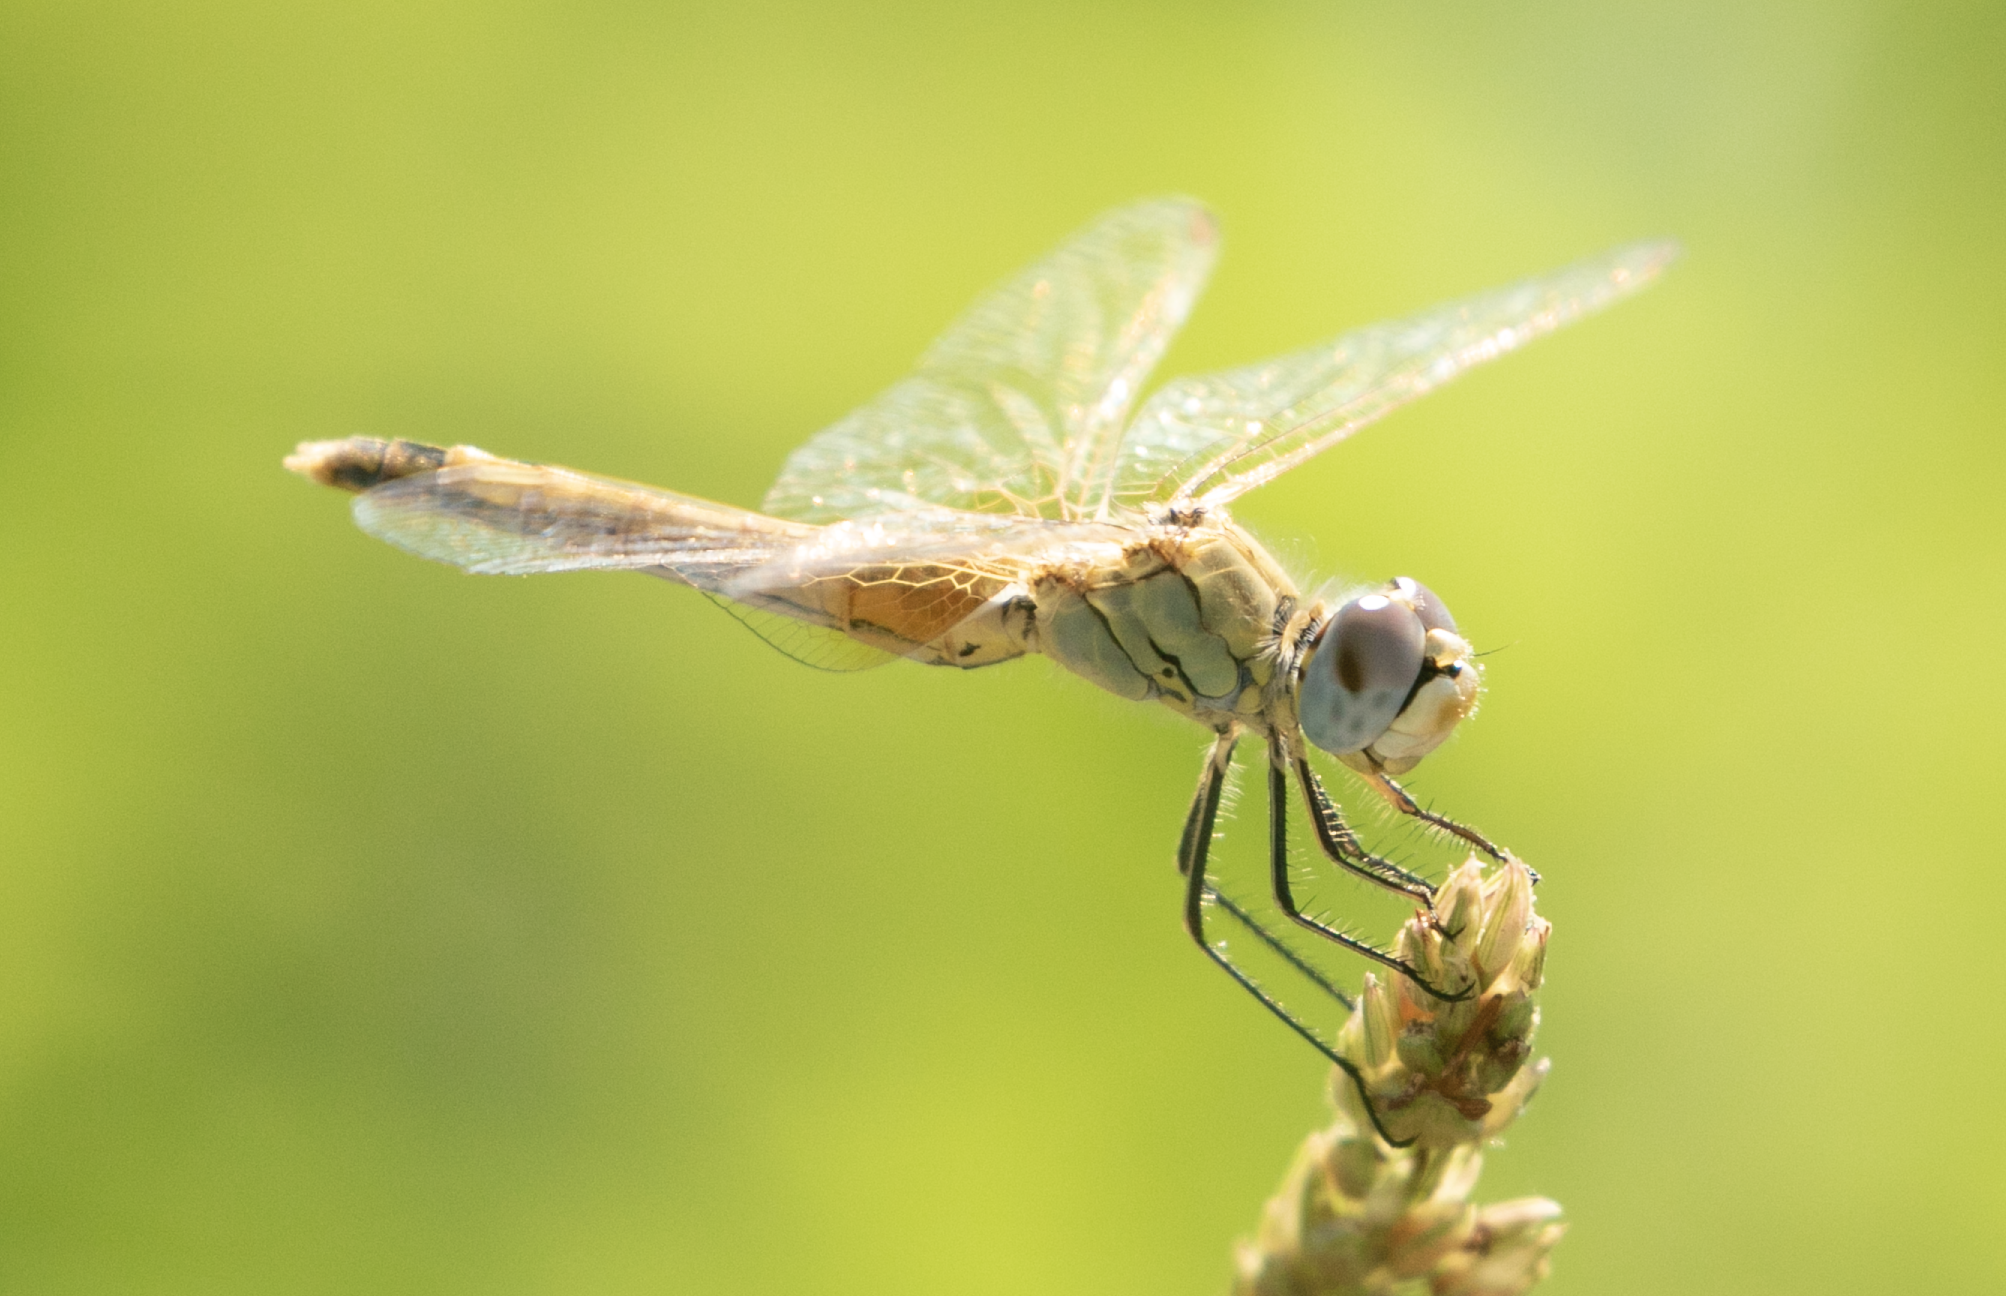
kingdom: Animalia
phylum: Arthropoda
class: Insecta
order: Odonata
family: Libellulidae
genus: Sympetrum
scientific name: Sympetrum fonscolombii
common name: Red-veined darter
